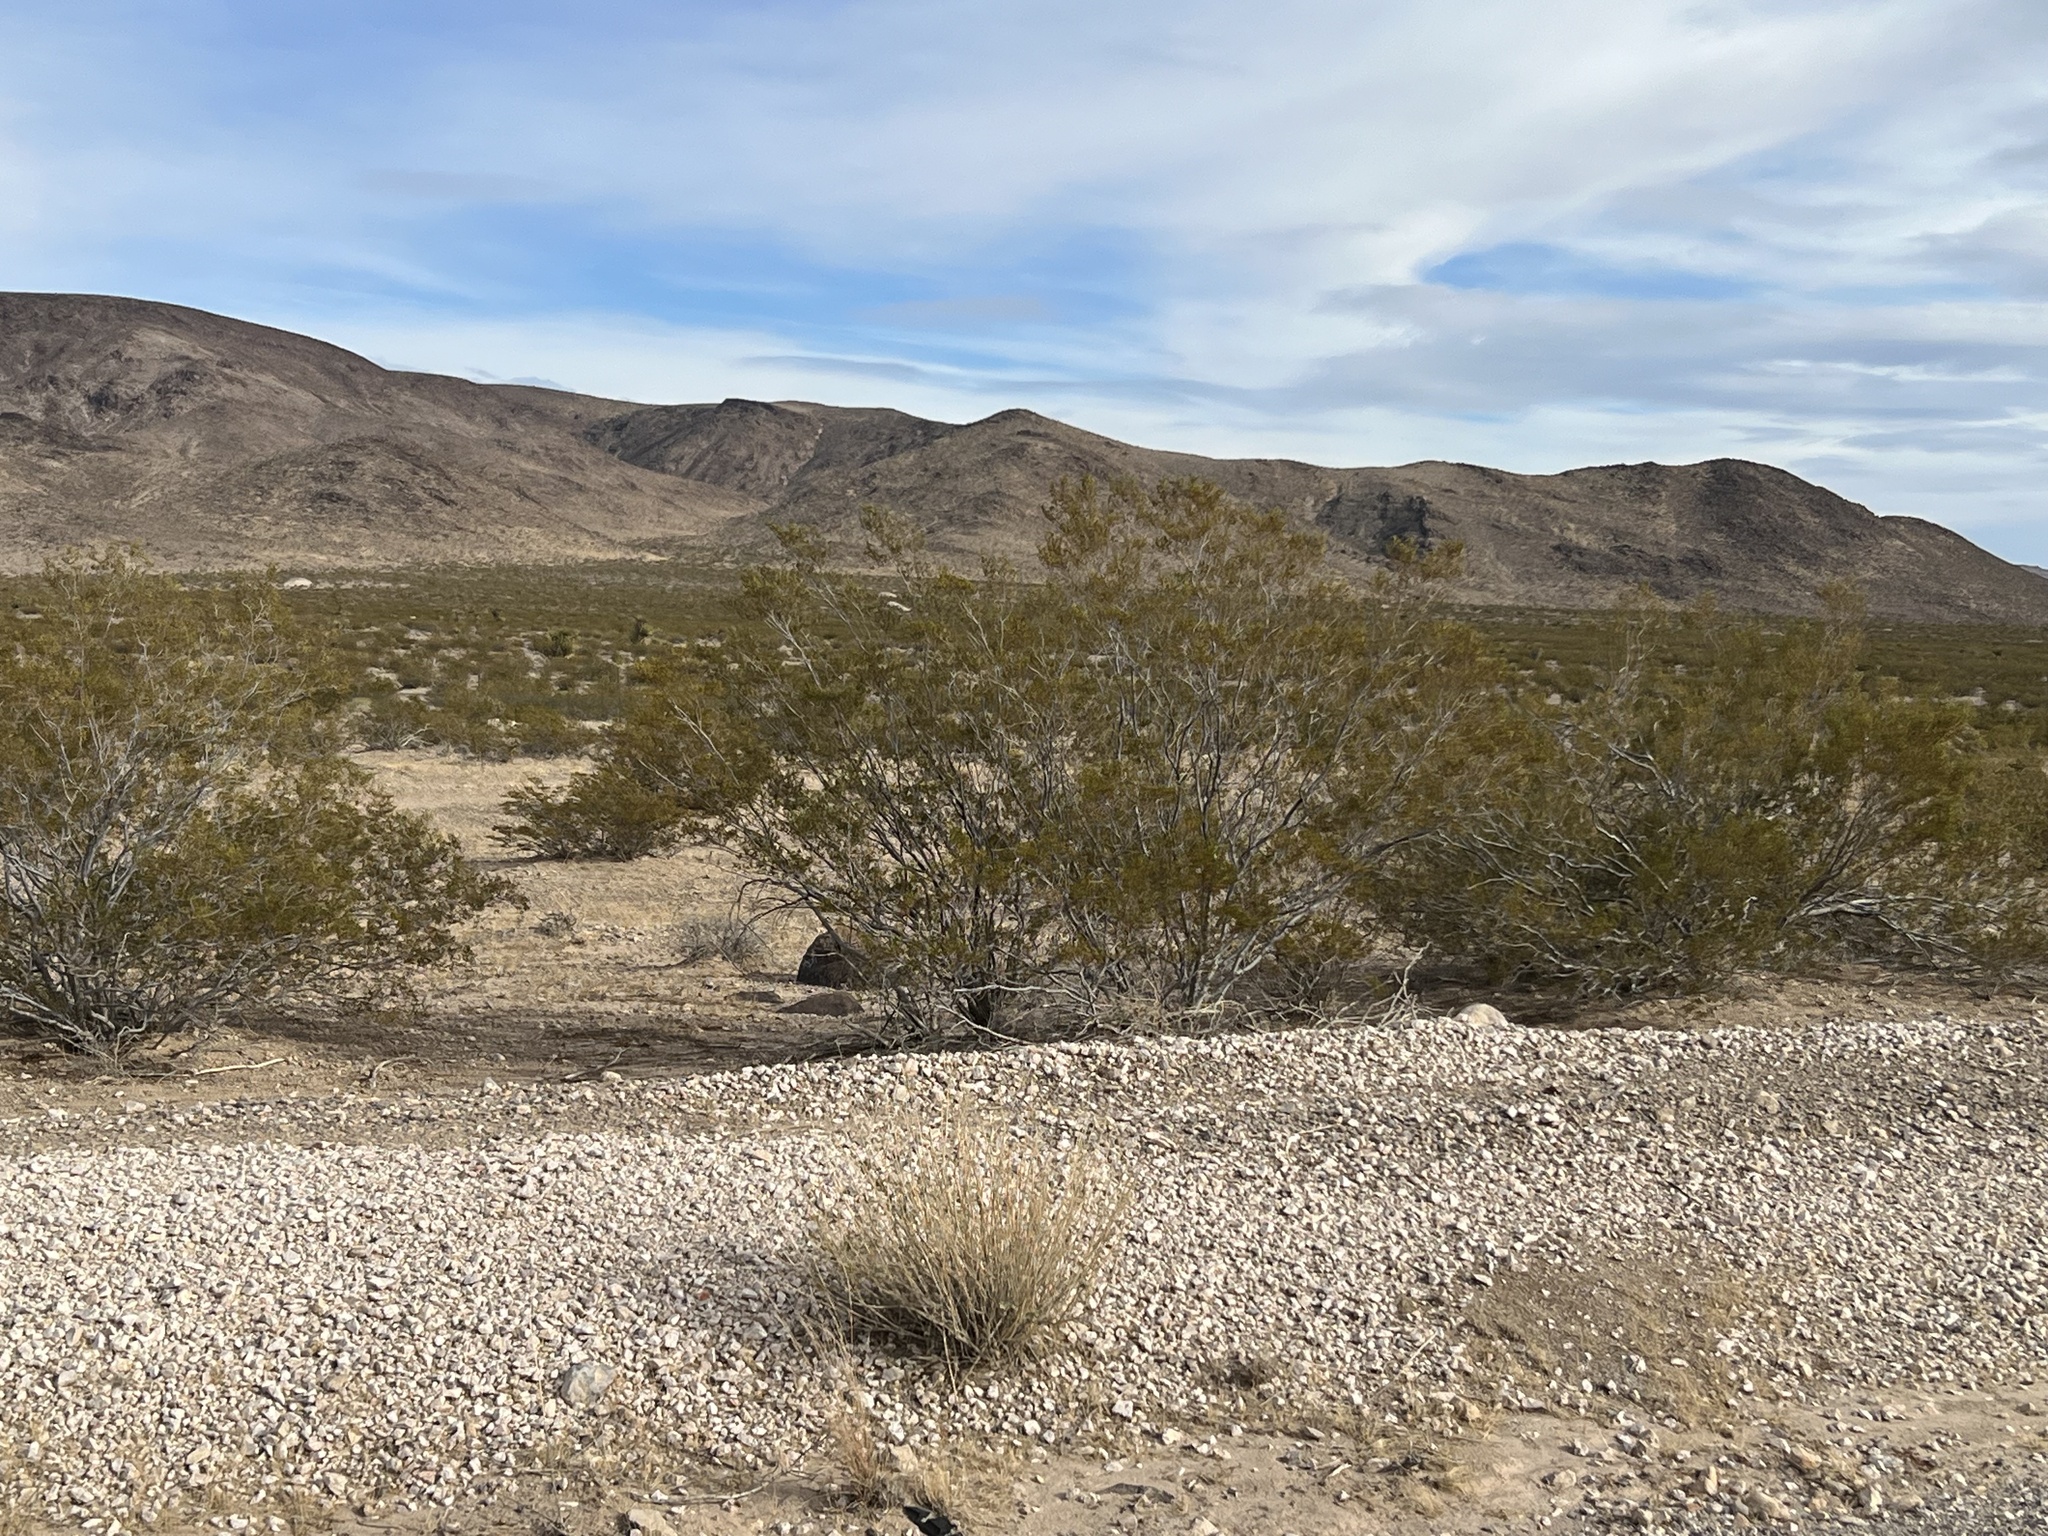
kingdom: Plantae
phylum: Tracheophyta
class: Magnoliopsida
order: Zygophyllales
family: Zygophyllaceae
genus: Larrea
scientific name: Larrea tridentata
